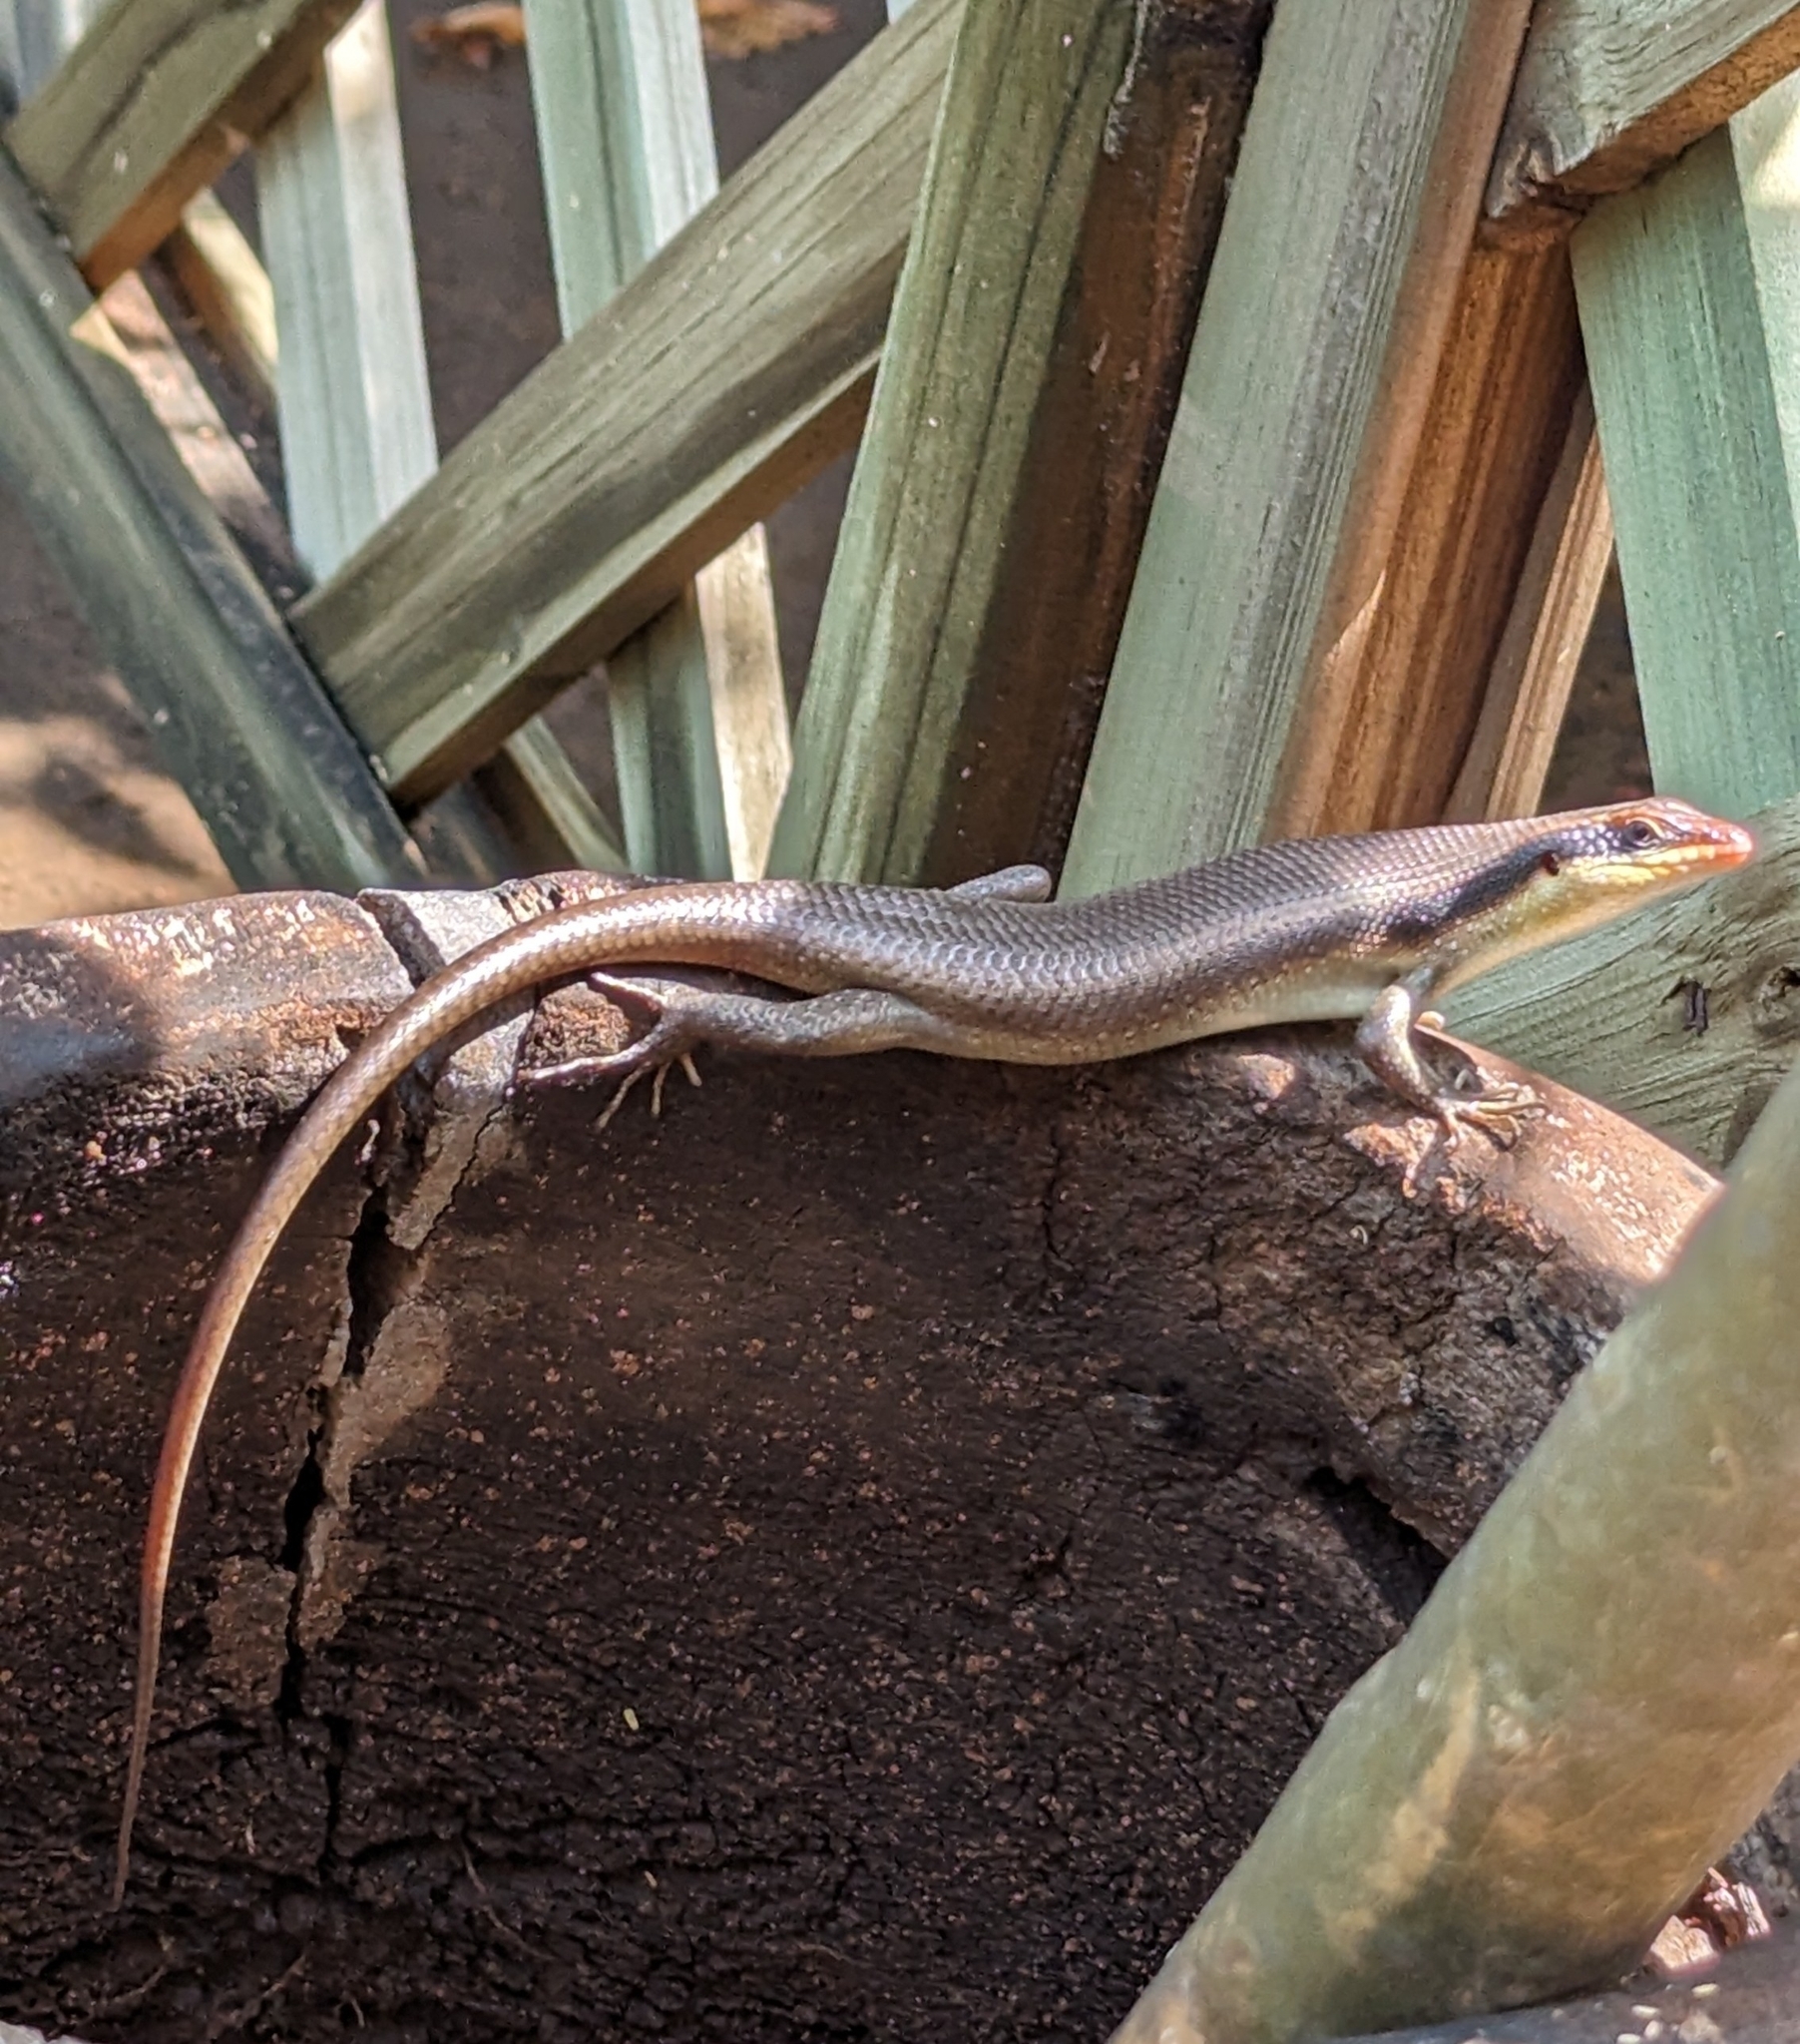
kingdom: Animalia
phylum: Chordata
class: Squamata
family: Scincidae
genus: Trachylepis
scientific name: Trachylepis wahlbergii
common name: Wahlberg’s striped skink
